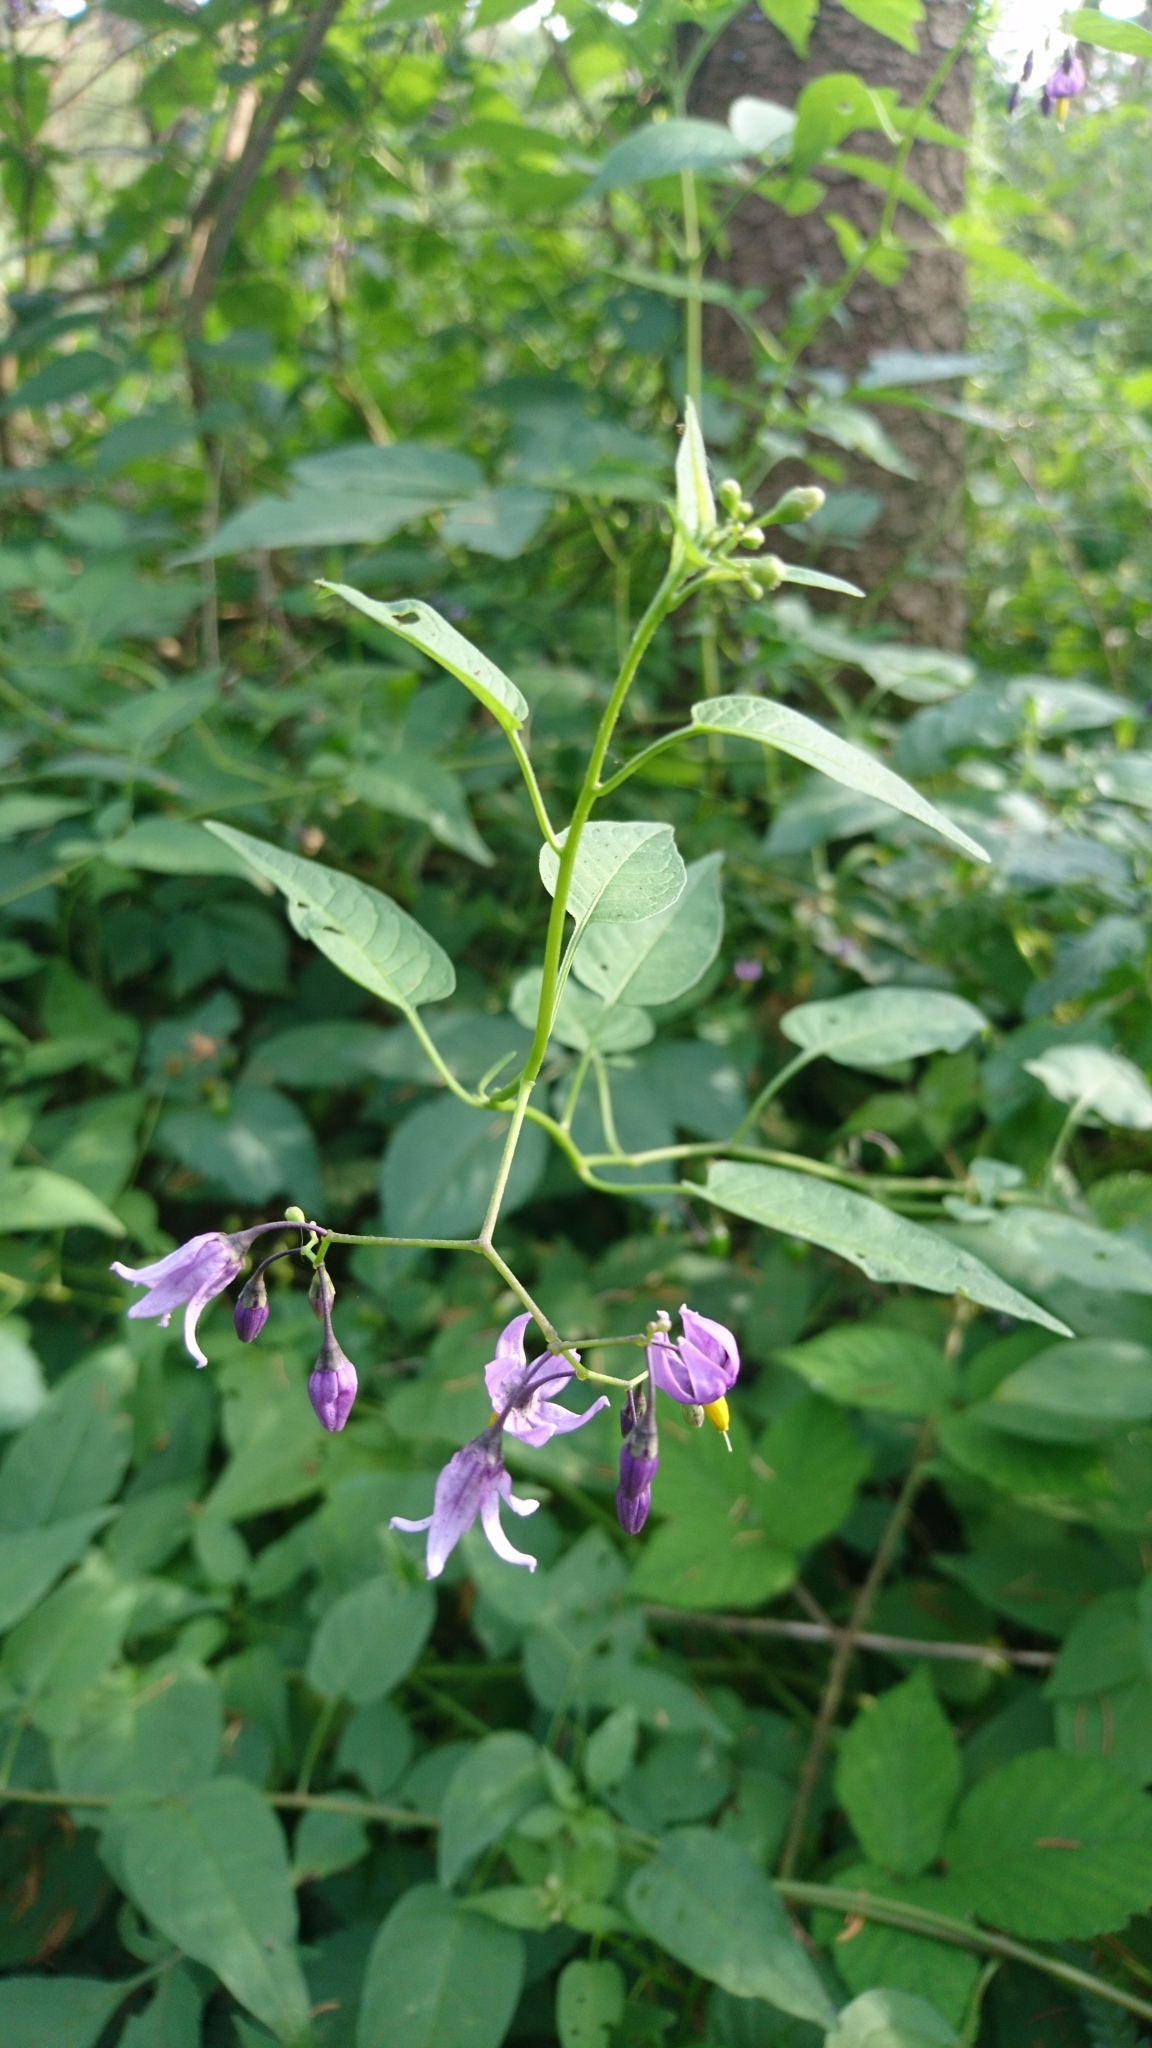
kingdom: Plantae
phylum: Tracheophyta
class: Magnoliopsida
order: Solanales
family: Solanaceae
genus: Solanum
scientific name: Solanum dulcamara
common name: Climbing nightshade
